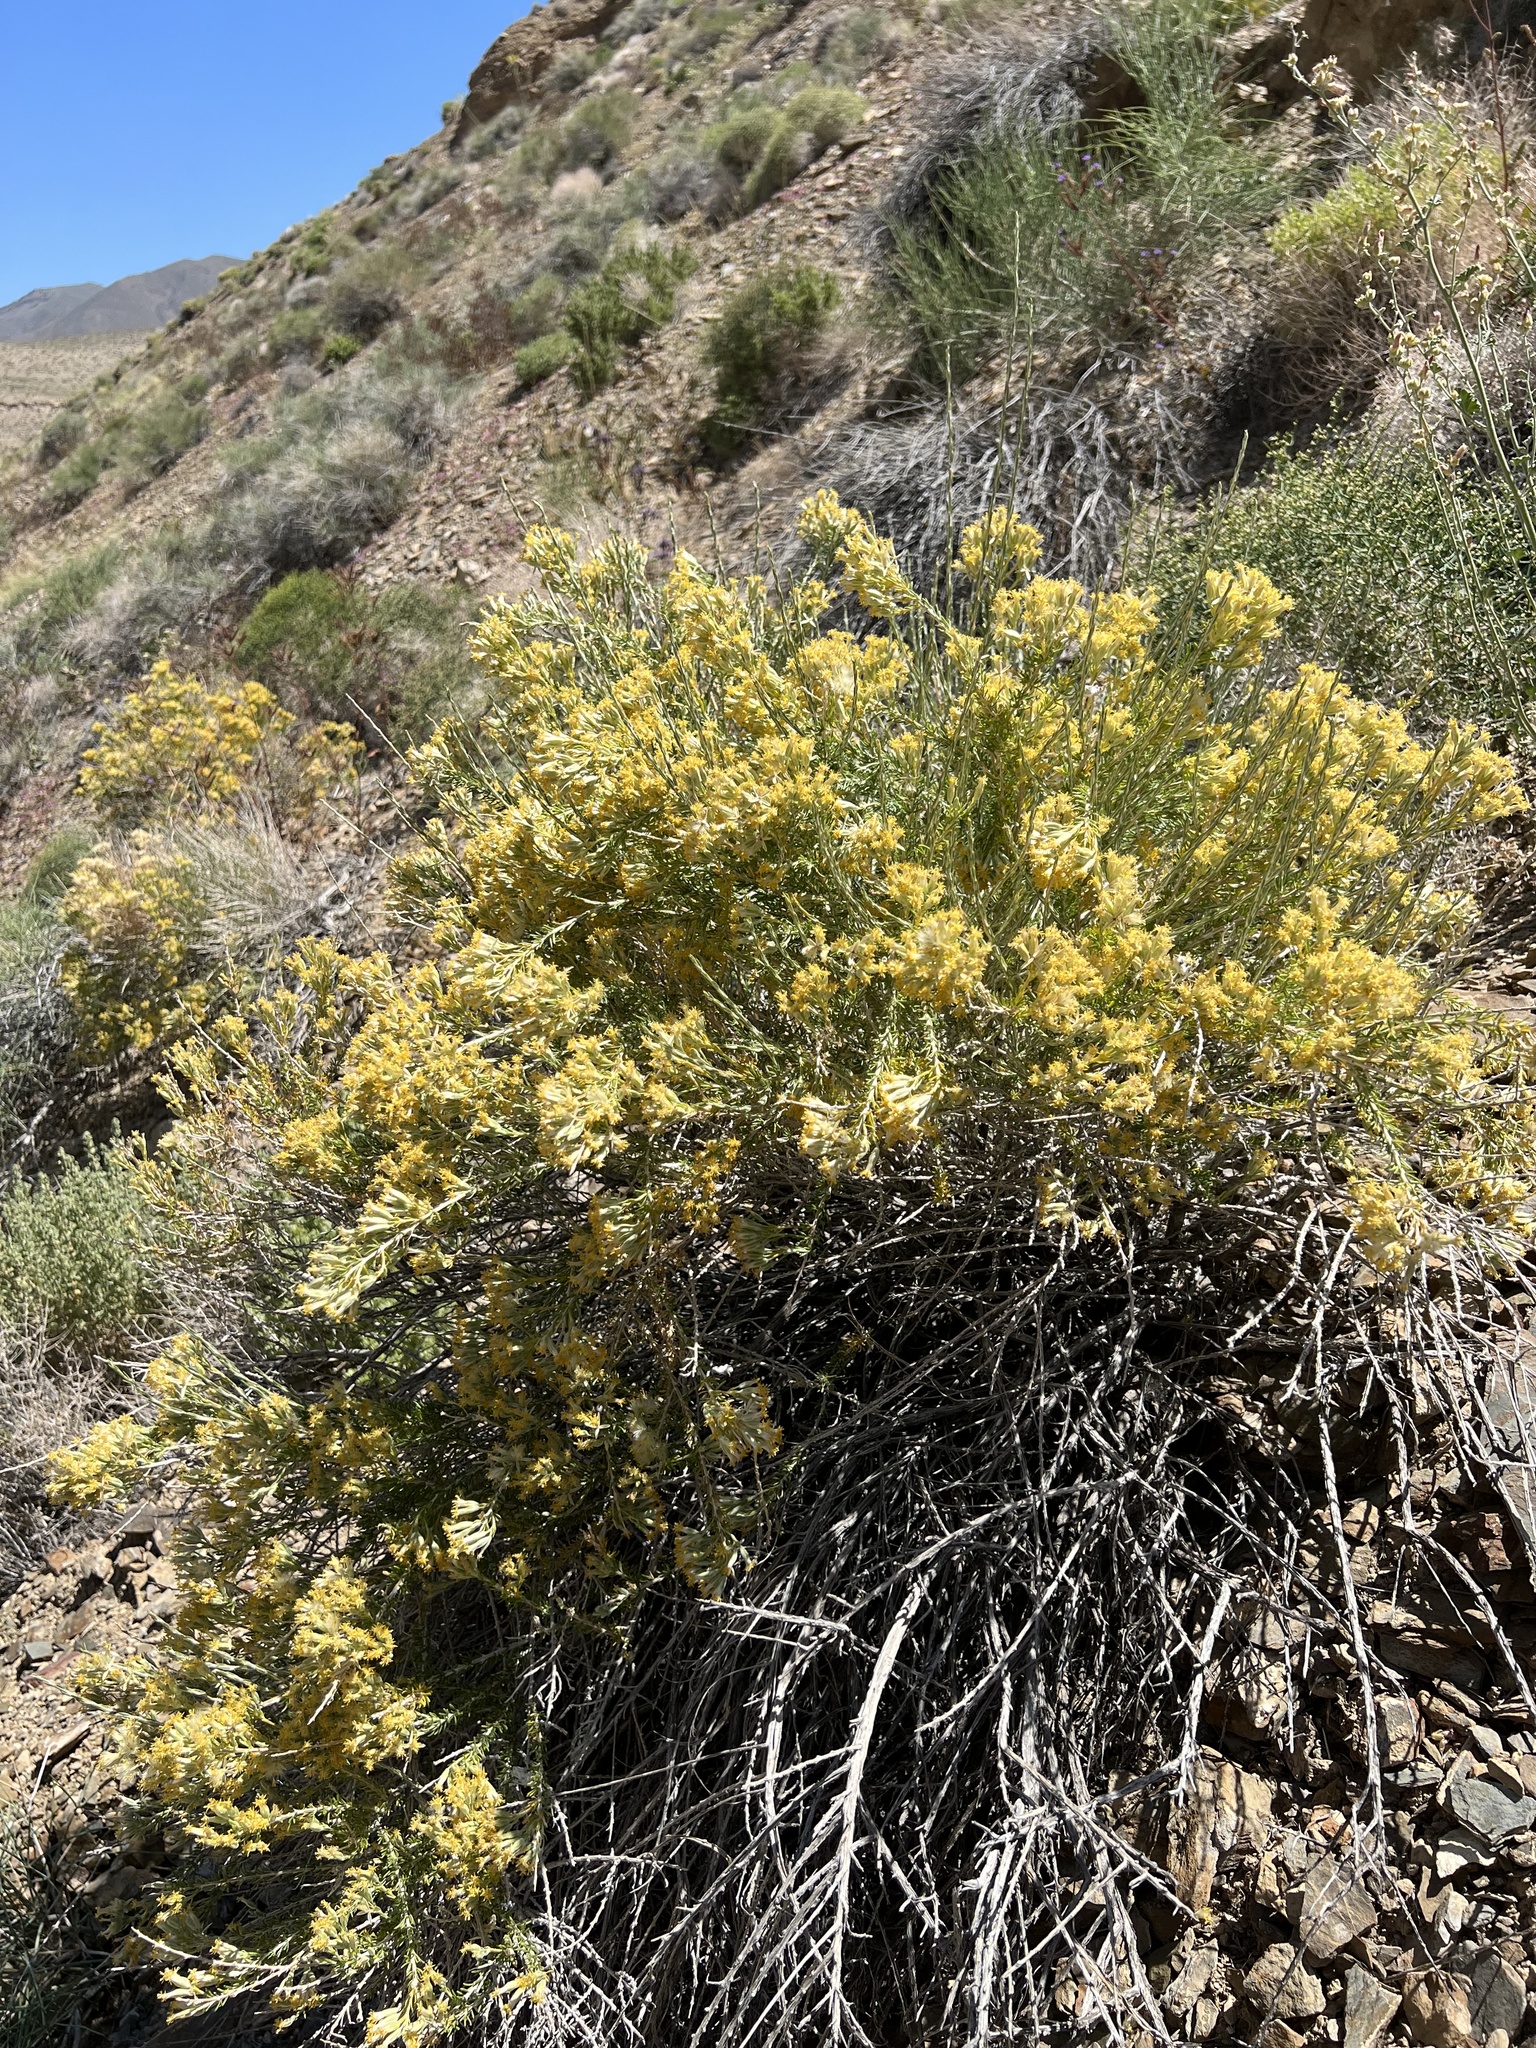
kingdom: Plantae
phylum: Tracheophyta
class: Magnoliopsida
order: Asterales
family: Asteraceae
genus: Tetradymia
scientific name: Tetradymia glabrata
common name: Smooth tetradymia
